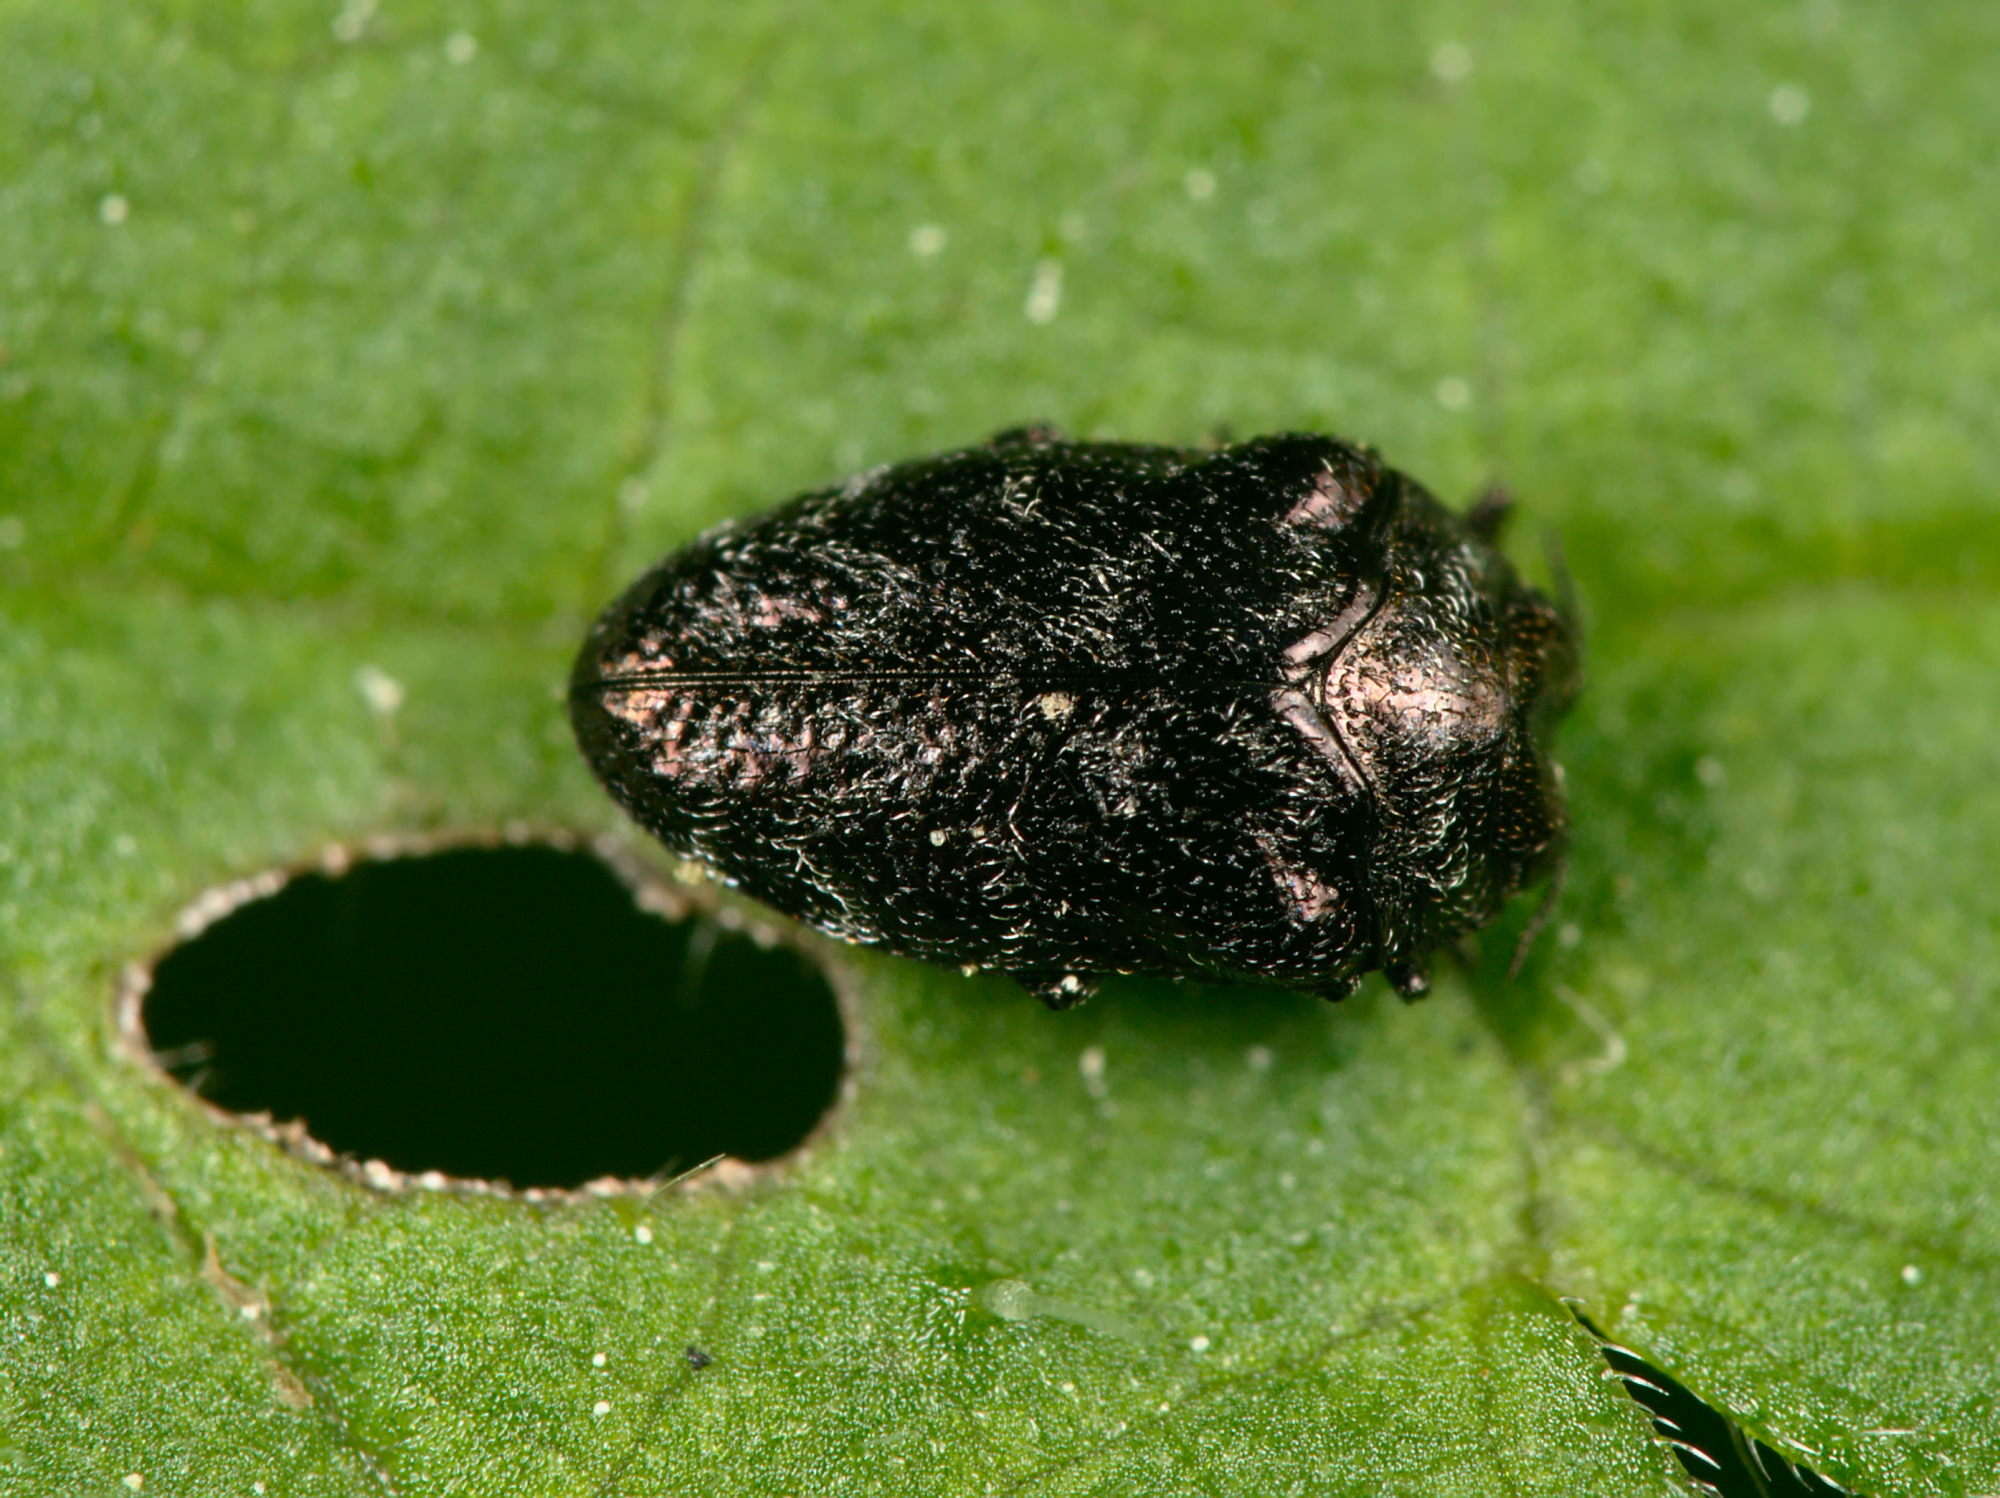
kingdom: Animalia
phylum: Arthropoda
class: Insecta
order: Coleoptera
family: Buprestidae
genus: Trachys
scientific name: Trachys minutus
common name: Metallic wood-boring beetle
